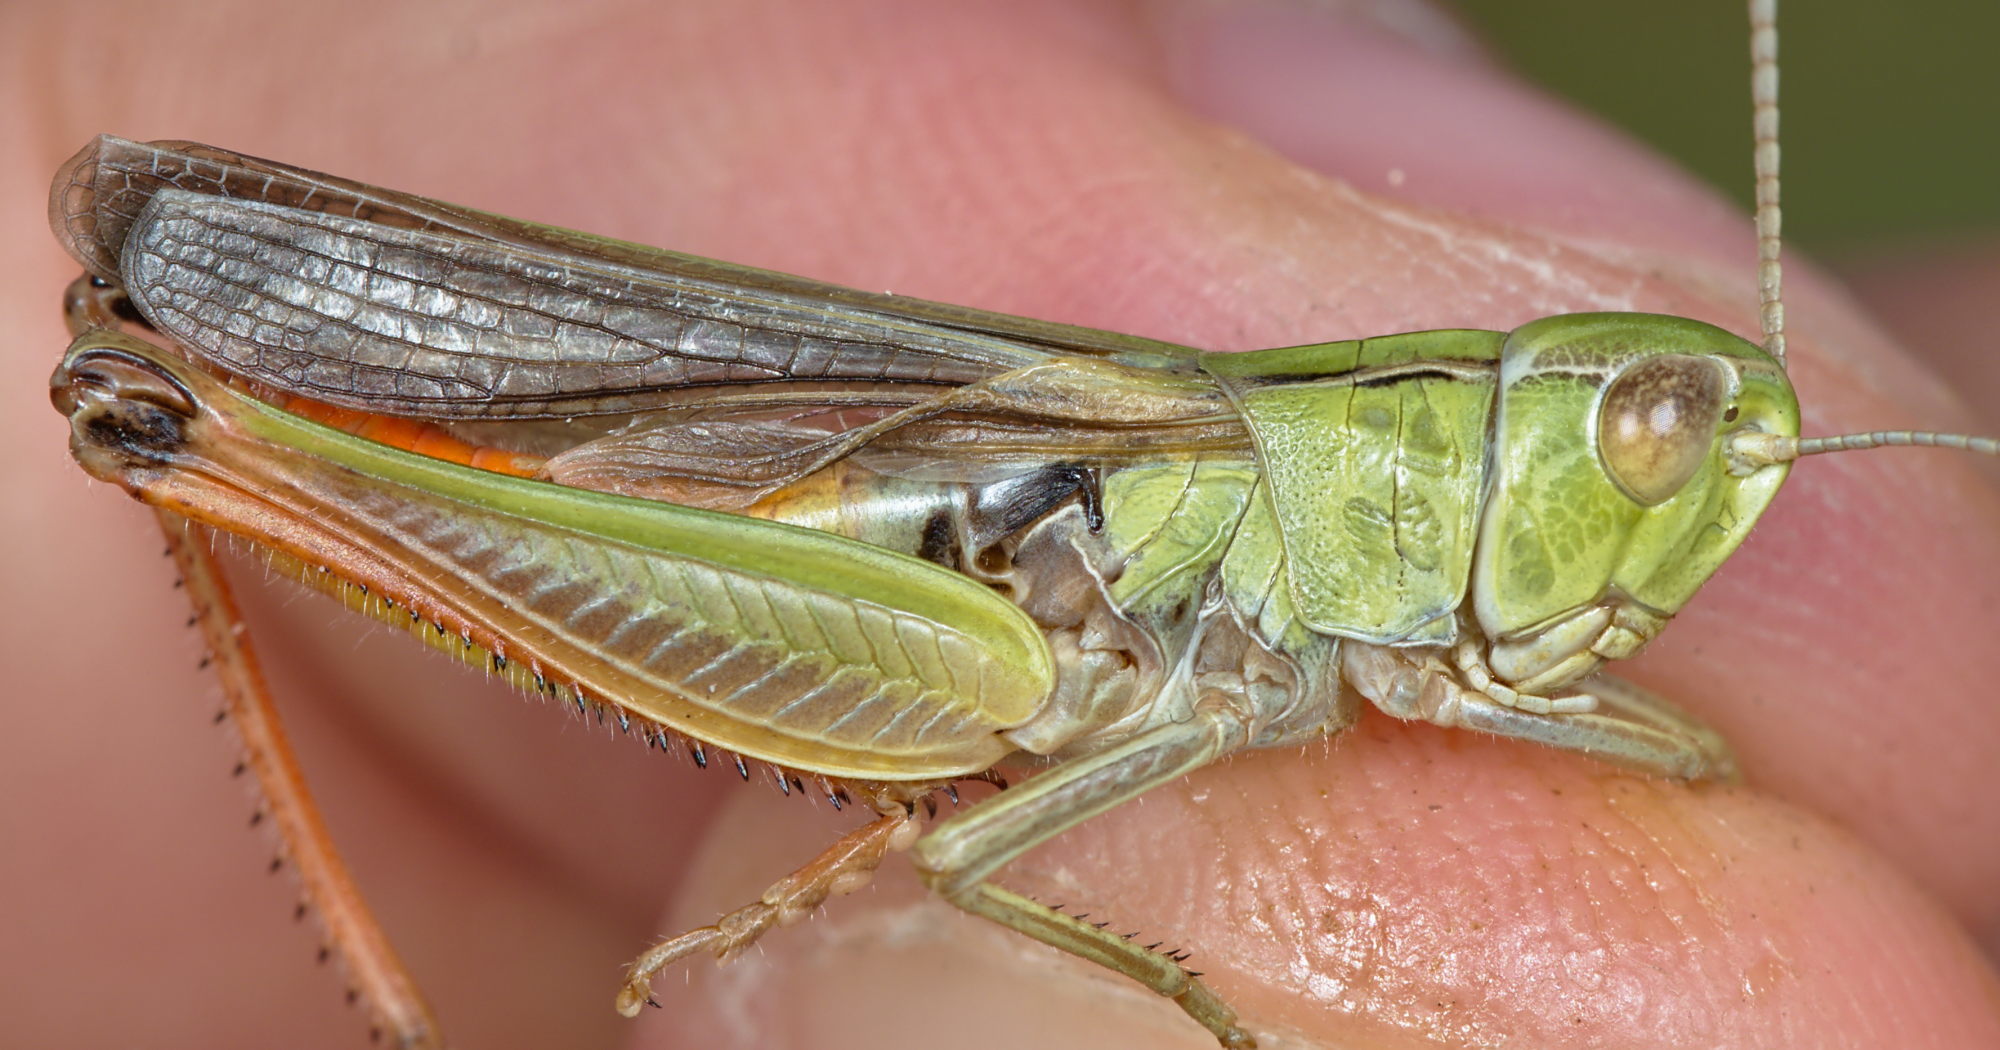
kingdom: Animalia
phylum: Arthropoda
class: Insecta
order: Orthoptera
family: Acrididae
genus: Stenobothrus
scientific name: Stenobothrus fischeri
